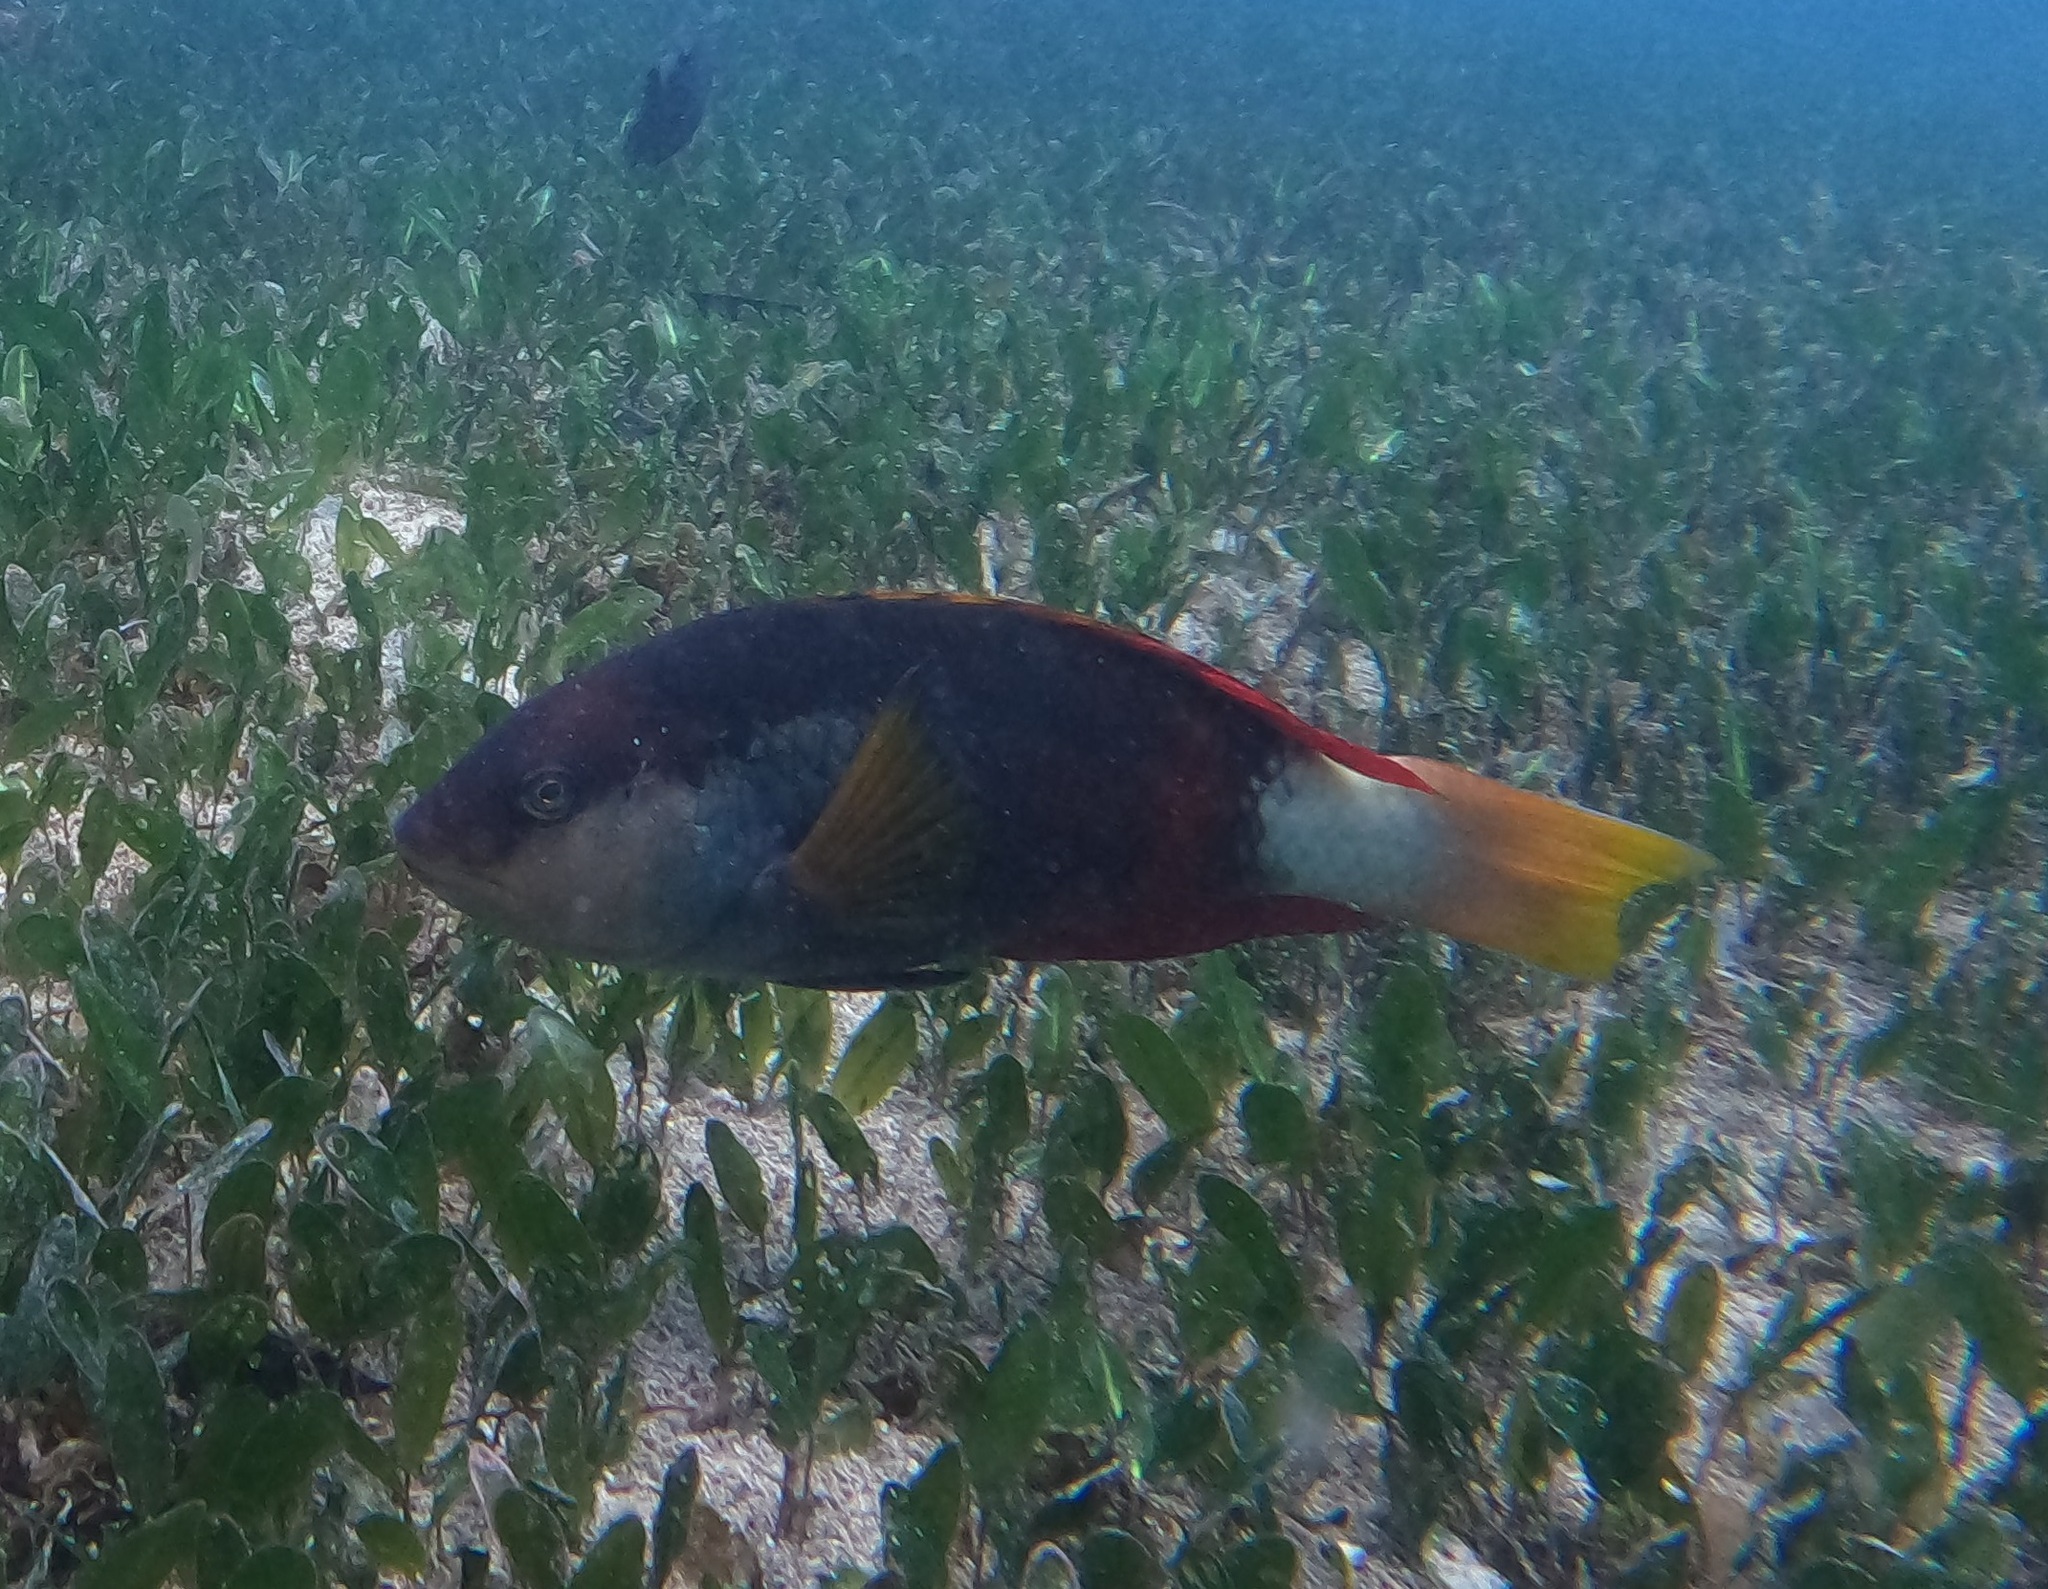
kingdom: Animalia
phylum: Chordata
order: Perciformes
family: Labridae
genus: Notolabrus
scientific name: Notolabrus gymnogenis
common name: Crimson banded wrasse
